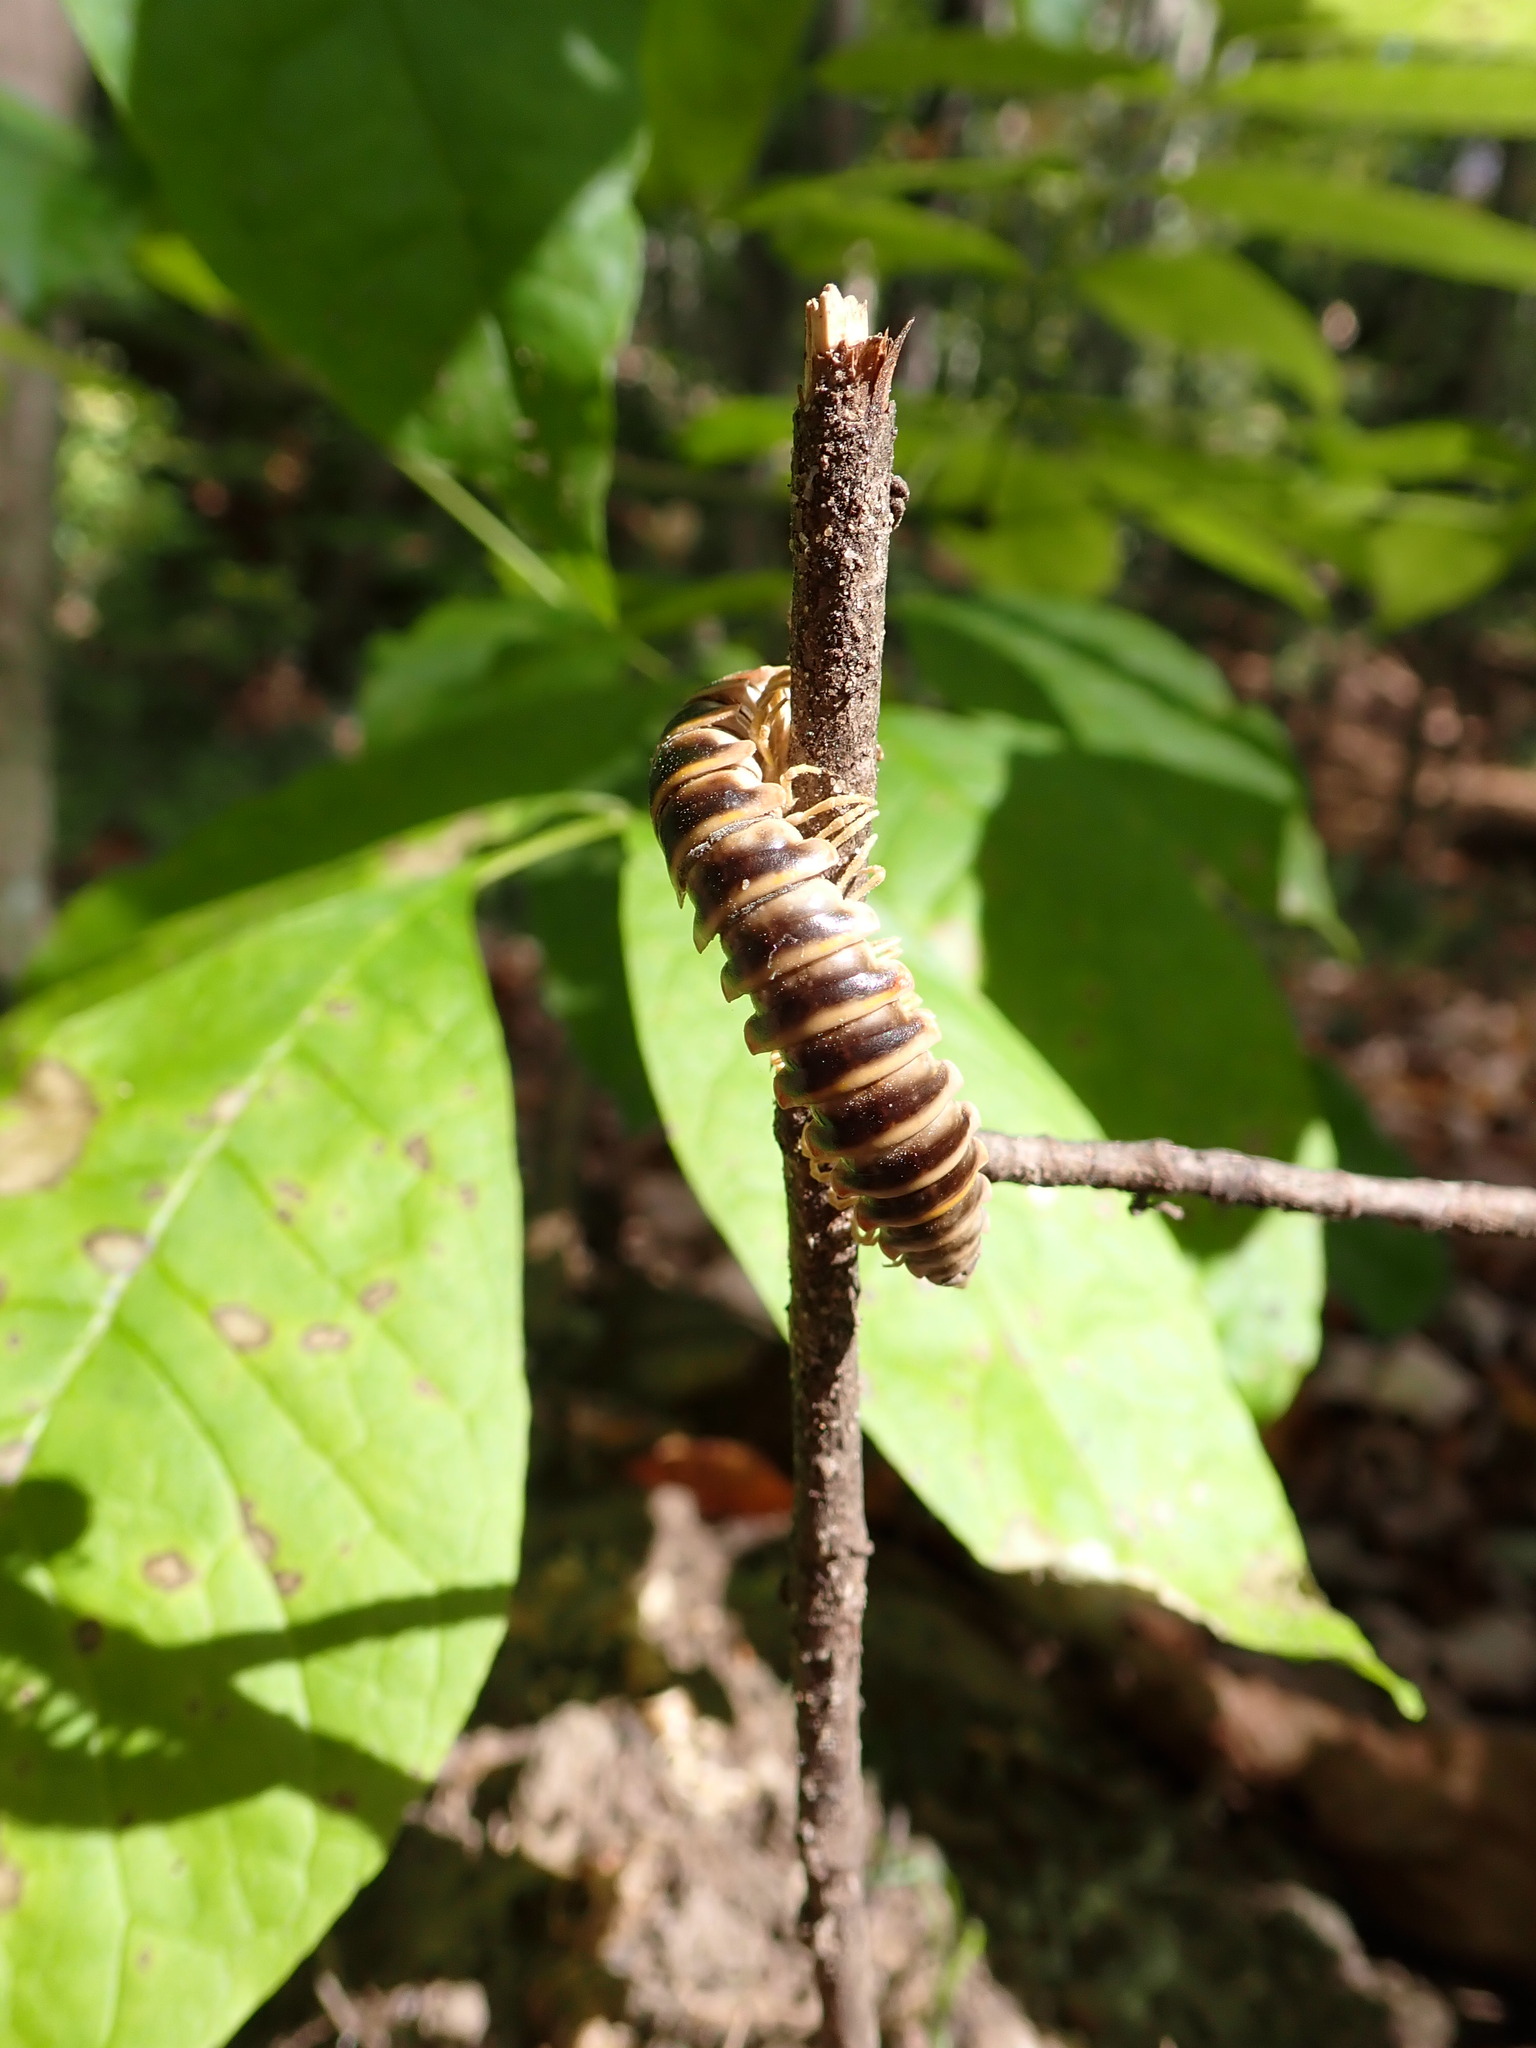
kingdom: Animalia
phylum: Arthropoda
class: Diplopoda
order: Polydesmida
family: Xystodesmidae
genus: Apheloria
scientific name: Apheloria virginiensis
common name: Black-and-gold flat millipede
